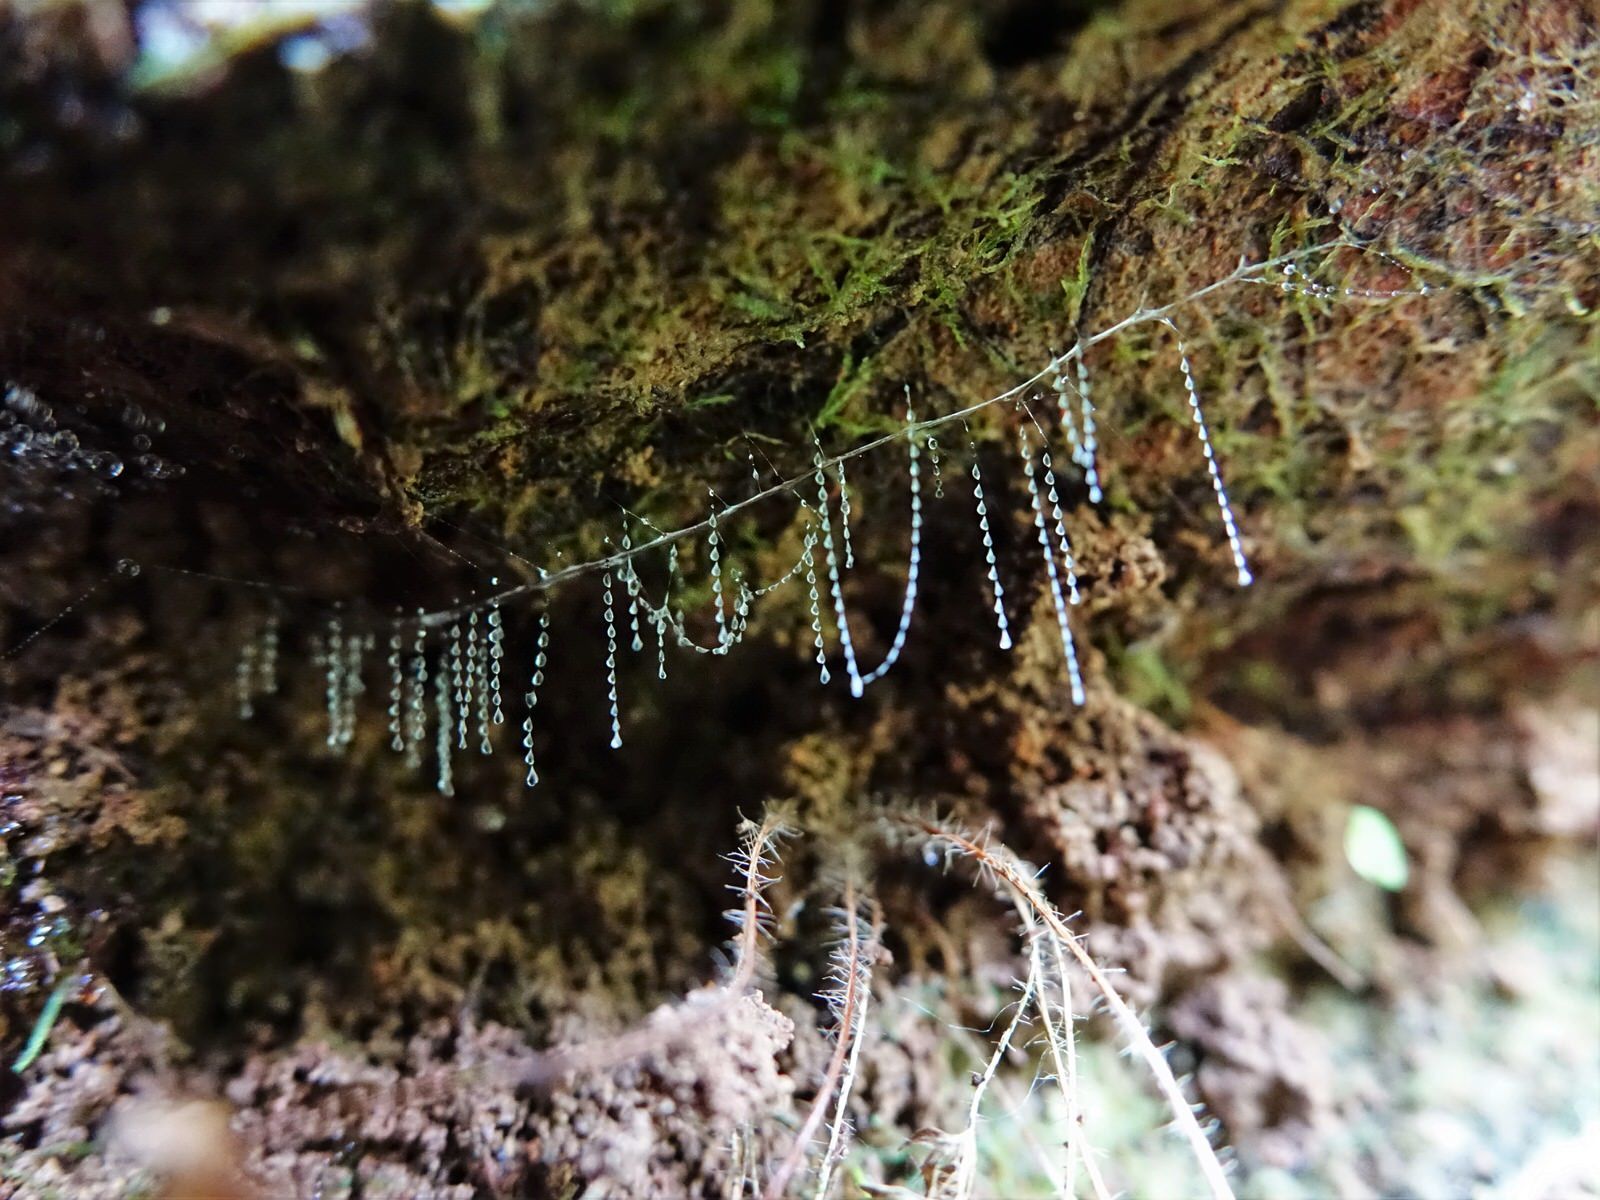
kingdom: Animalia
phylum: Arthropoda
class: Insecta
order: Diptera
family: Keroplatidae
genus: Arachnocampa
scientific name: Arachnocampa luminosa
